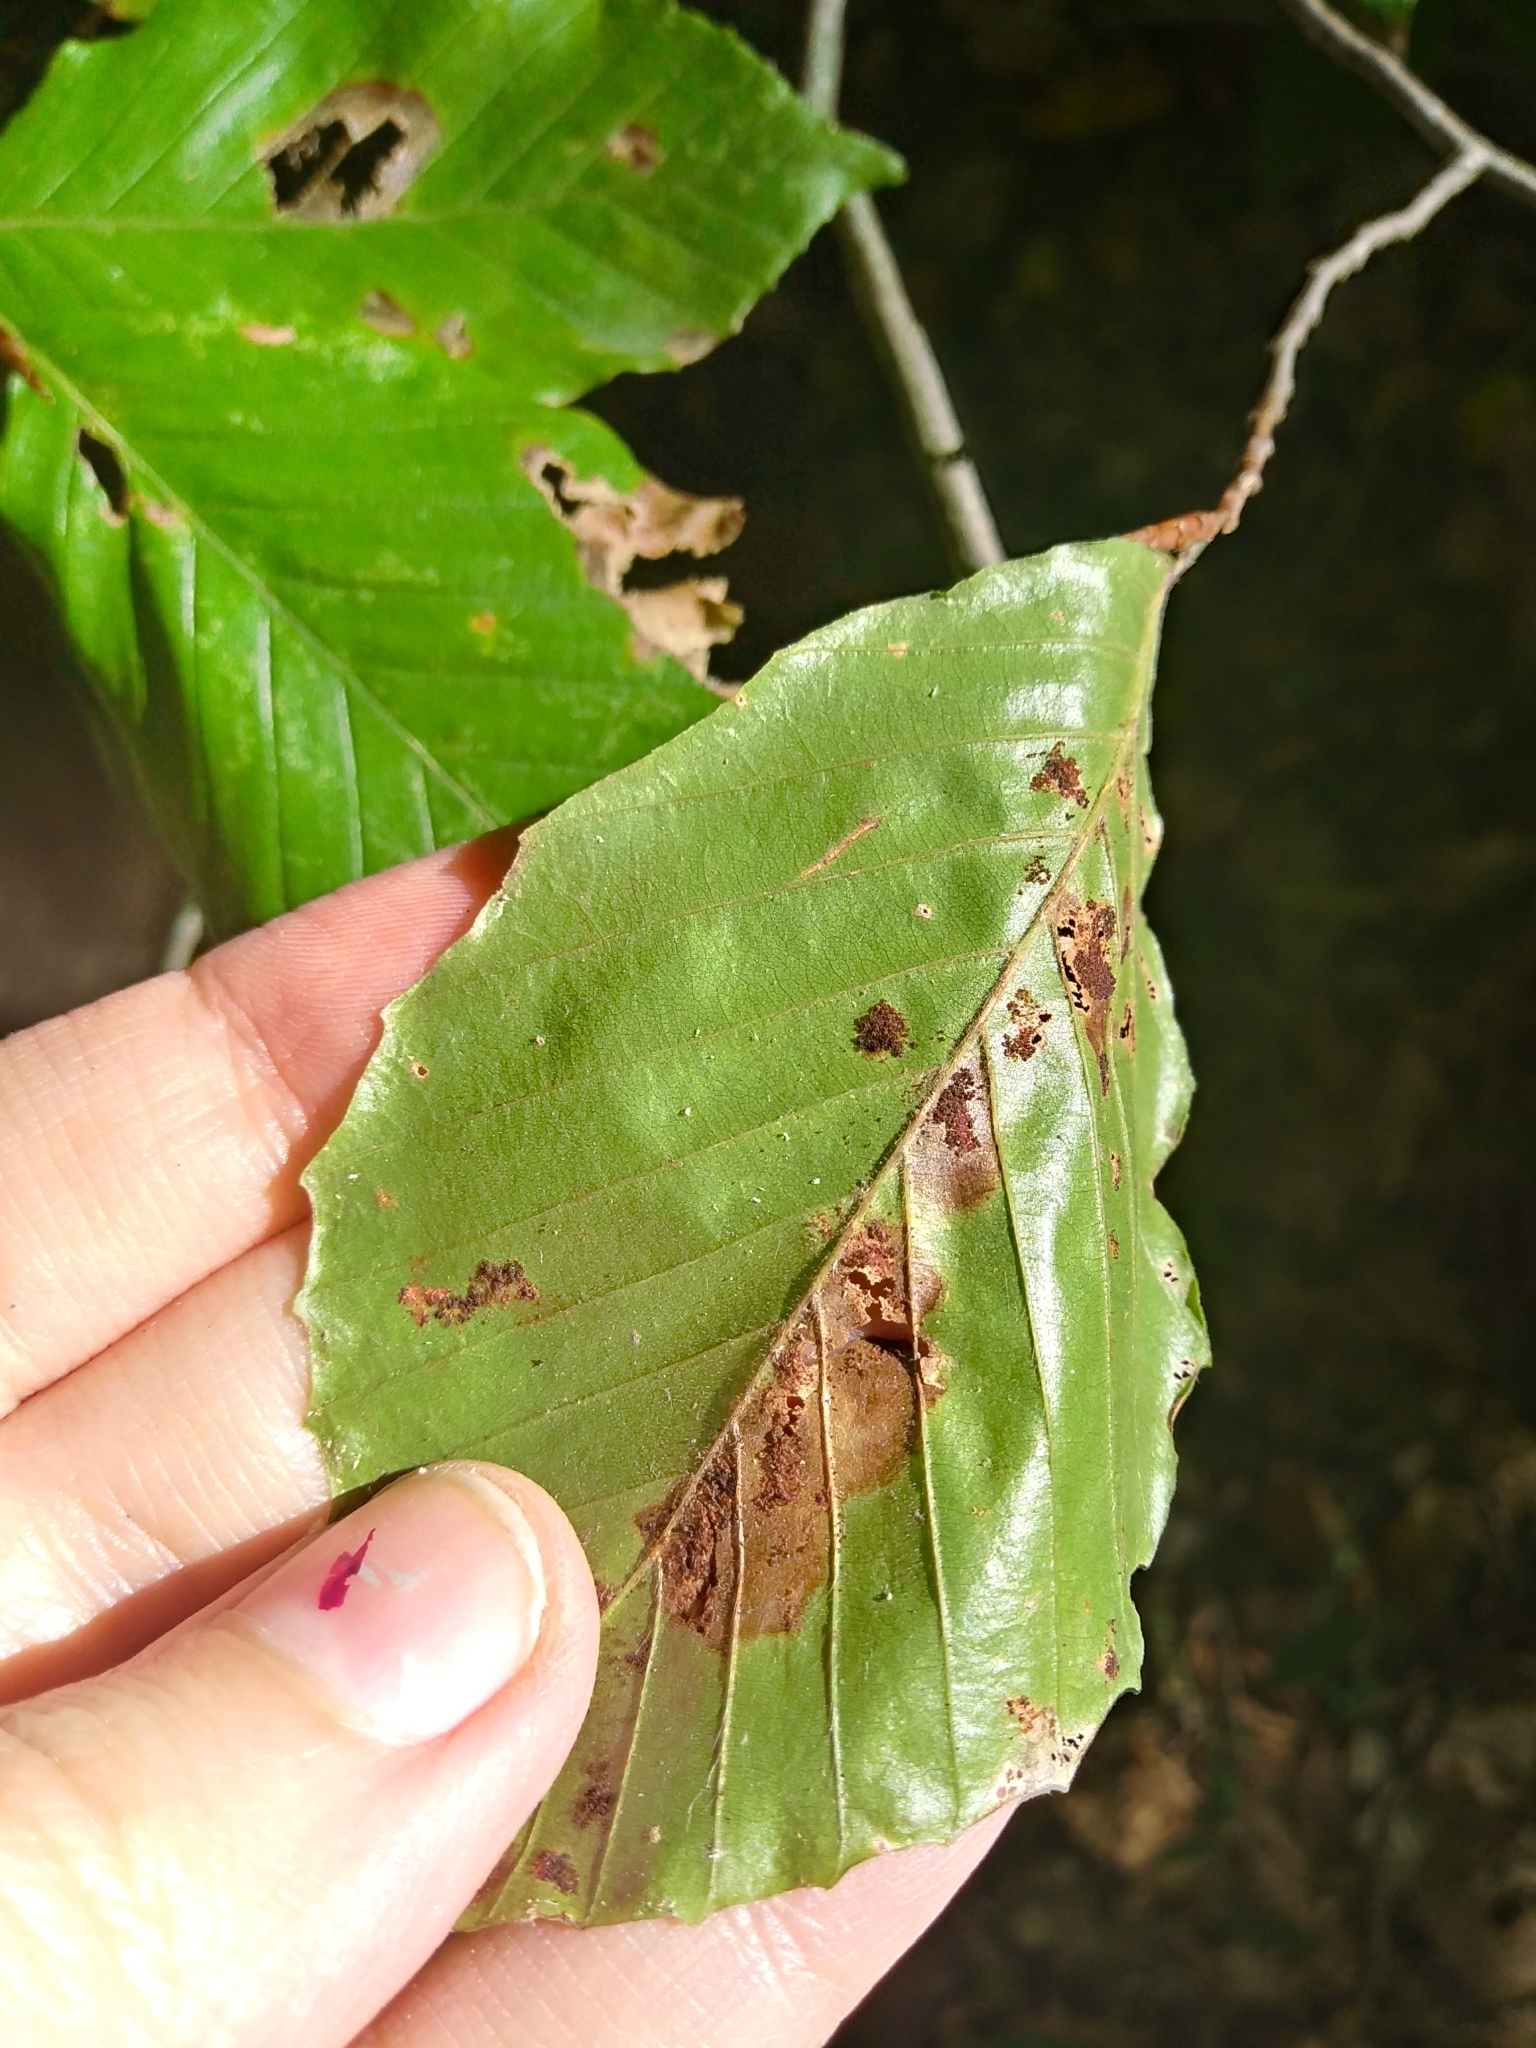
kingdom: Plantae
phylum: Tracheophyta
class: Magnoliopsida
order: Fagales
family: Fagaceae
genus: Fagus
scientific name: Fagus grandifolia
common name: American beech
